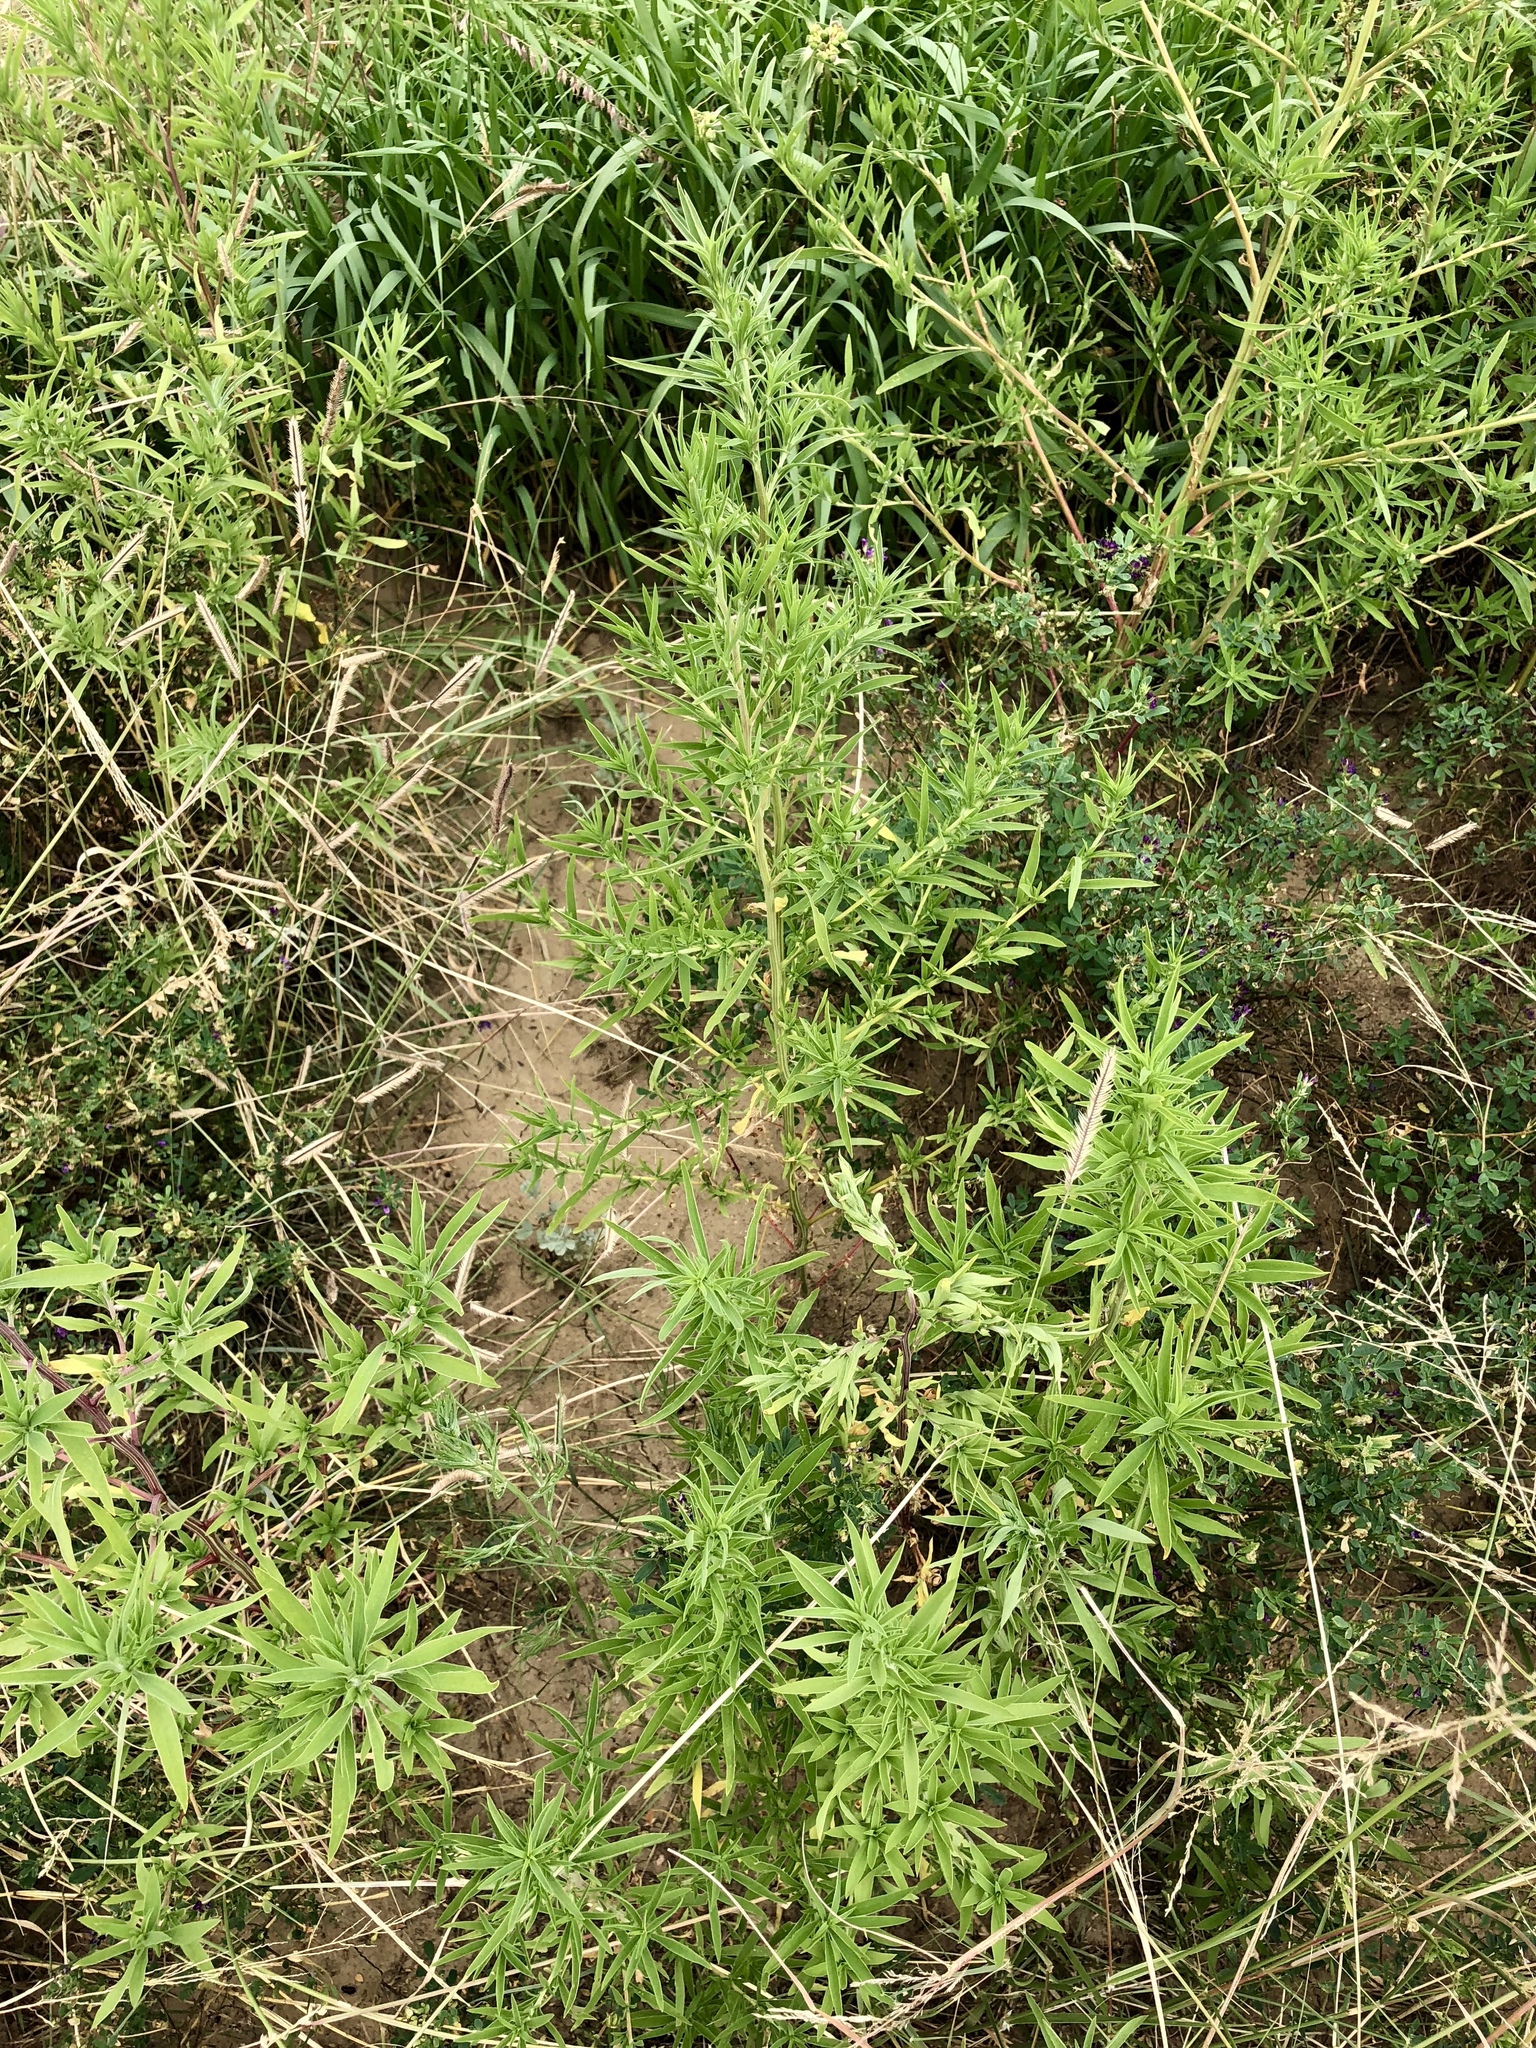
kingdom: Plantae
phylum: Tracheophyta
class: Magnoliopsida
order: Caryophyllales
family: Amaranthaceae
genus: Bassia
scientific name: Bassia scoparia
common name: Belvedere
